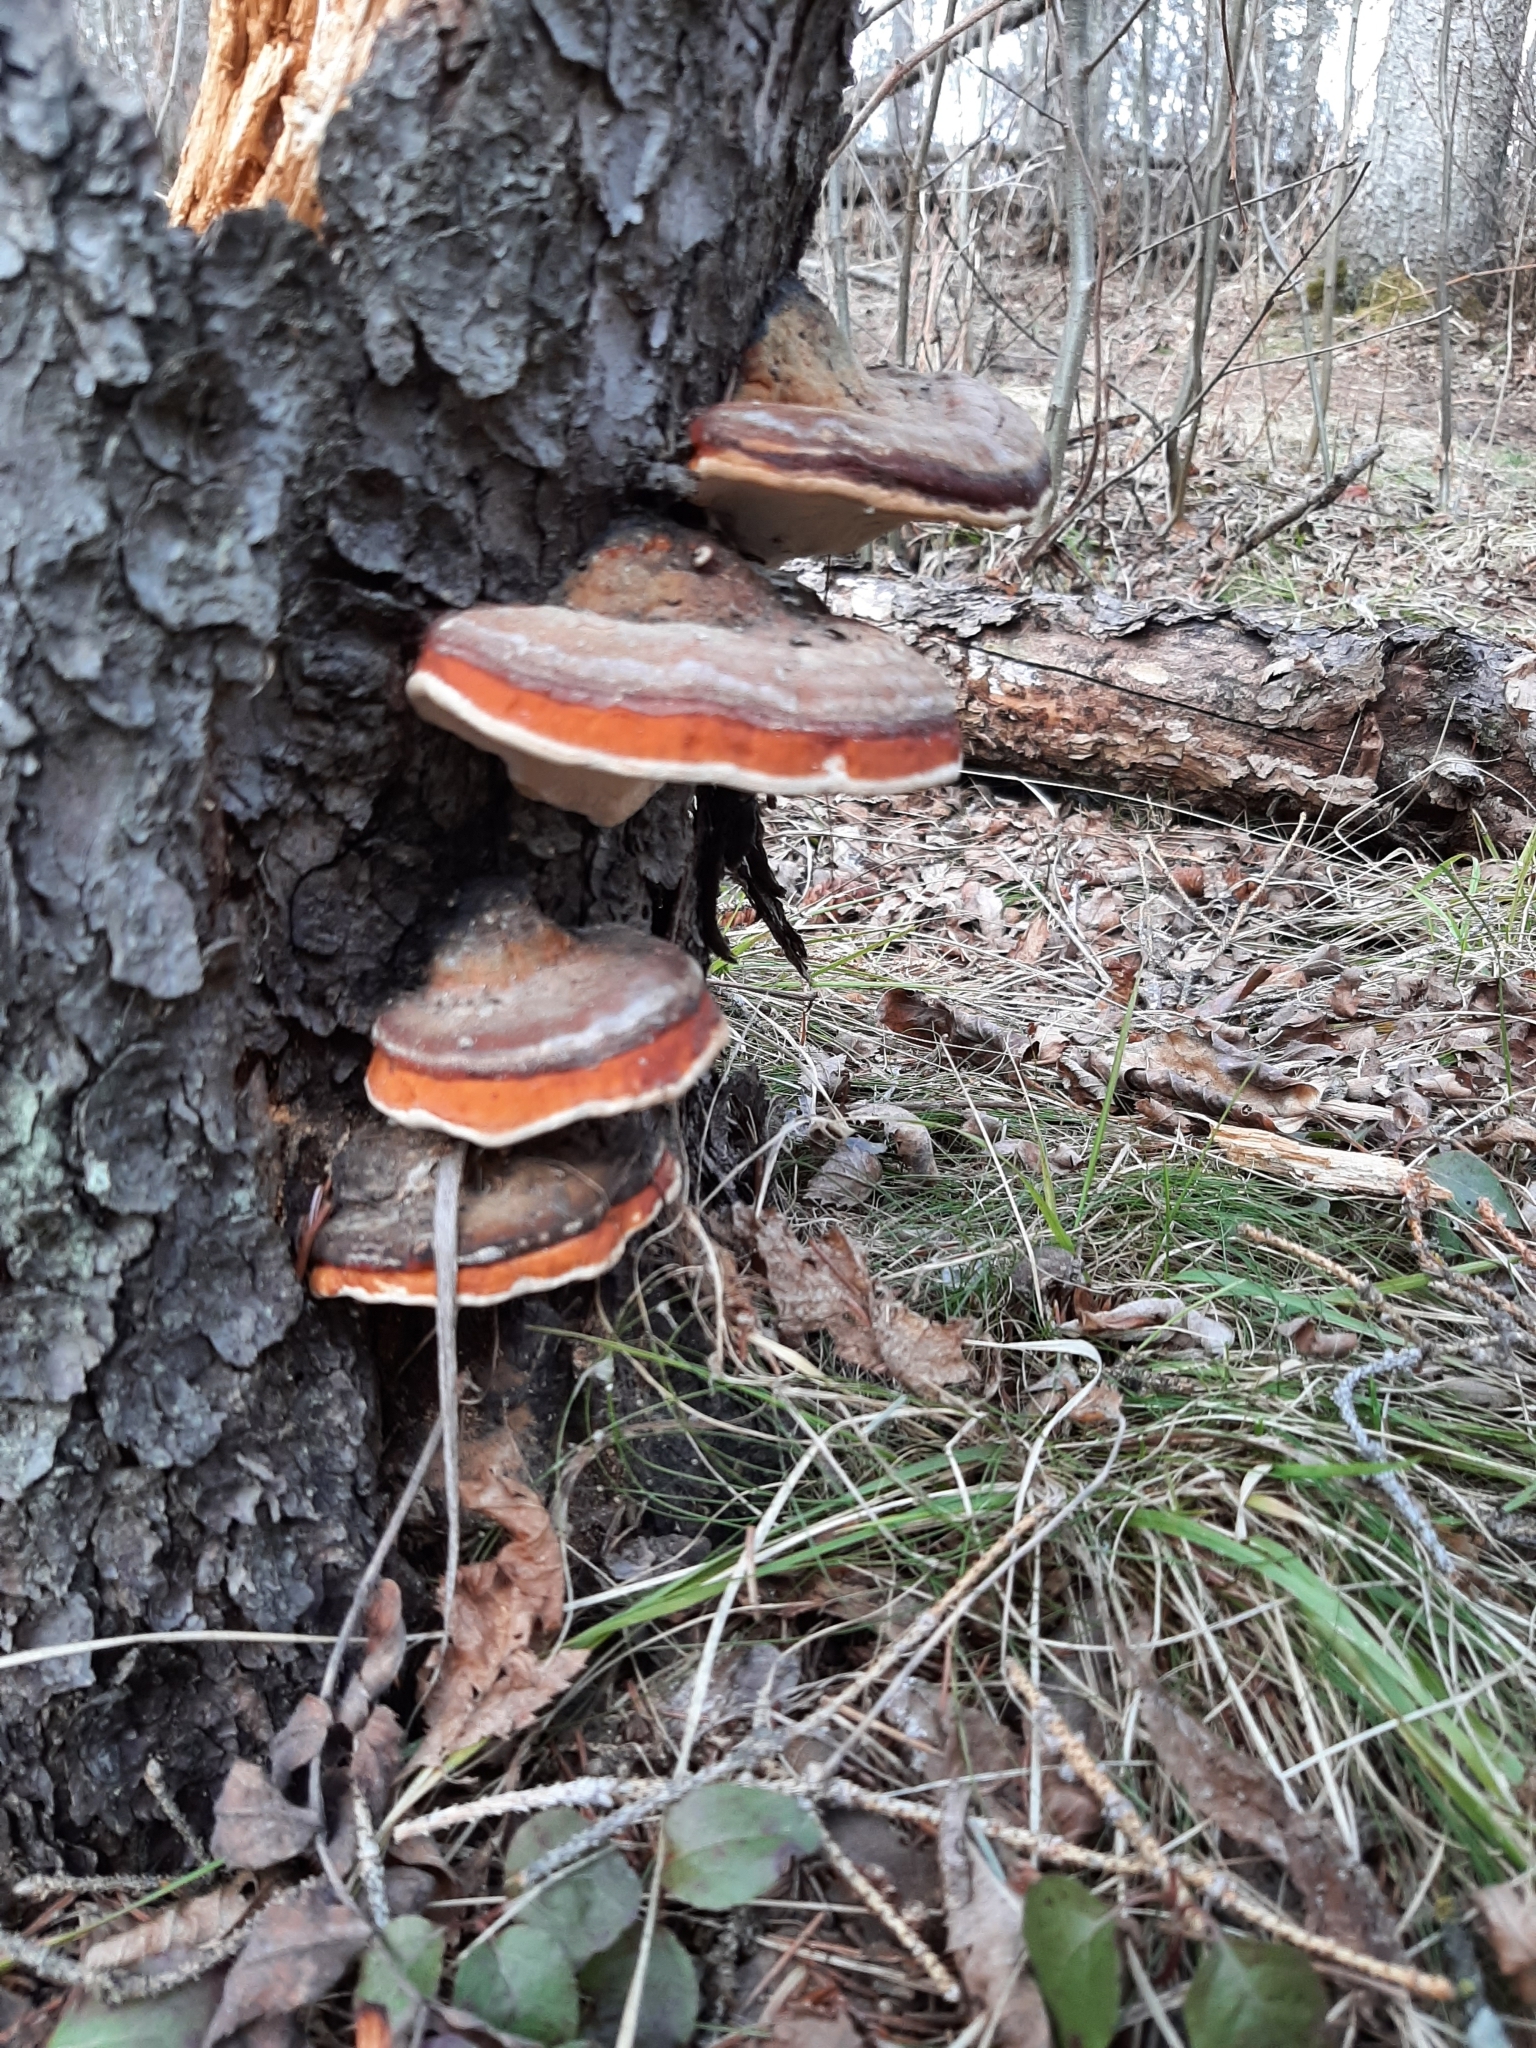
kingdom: Fungi
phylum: Basidiomycota
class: Agaricomycetes
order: Polyporales
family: Fomitopsidaceae
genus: Fomitopsis
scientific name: Fomitopsis mounceae
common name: Northern red belt
